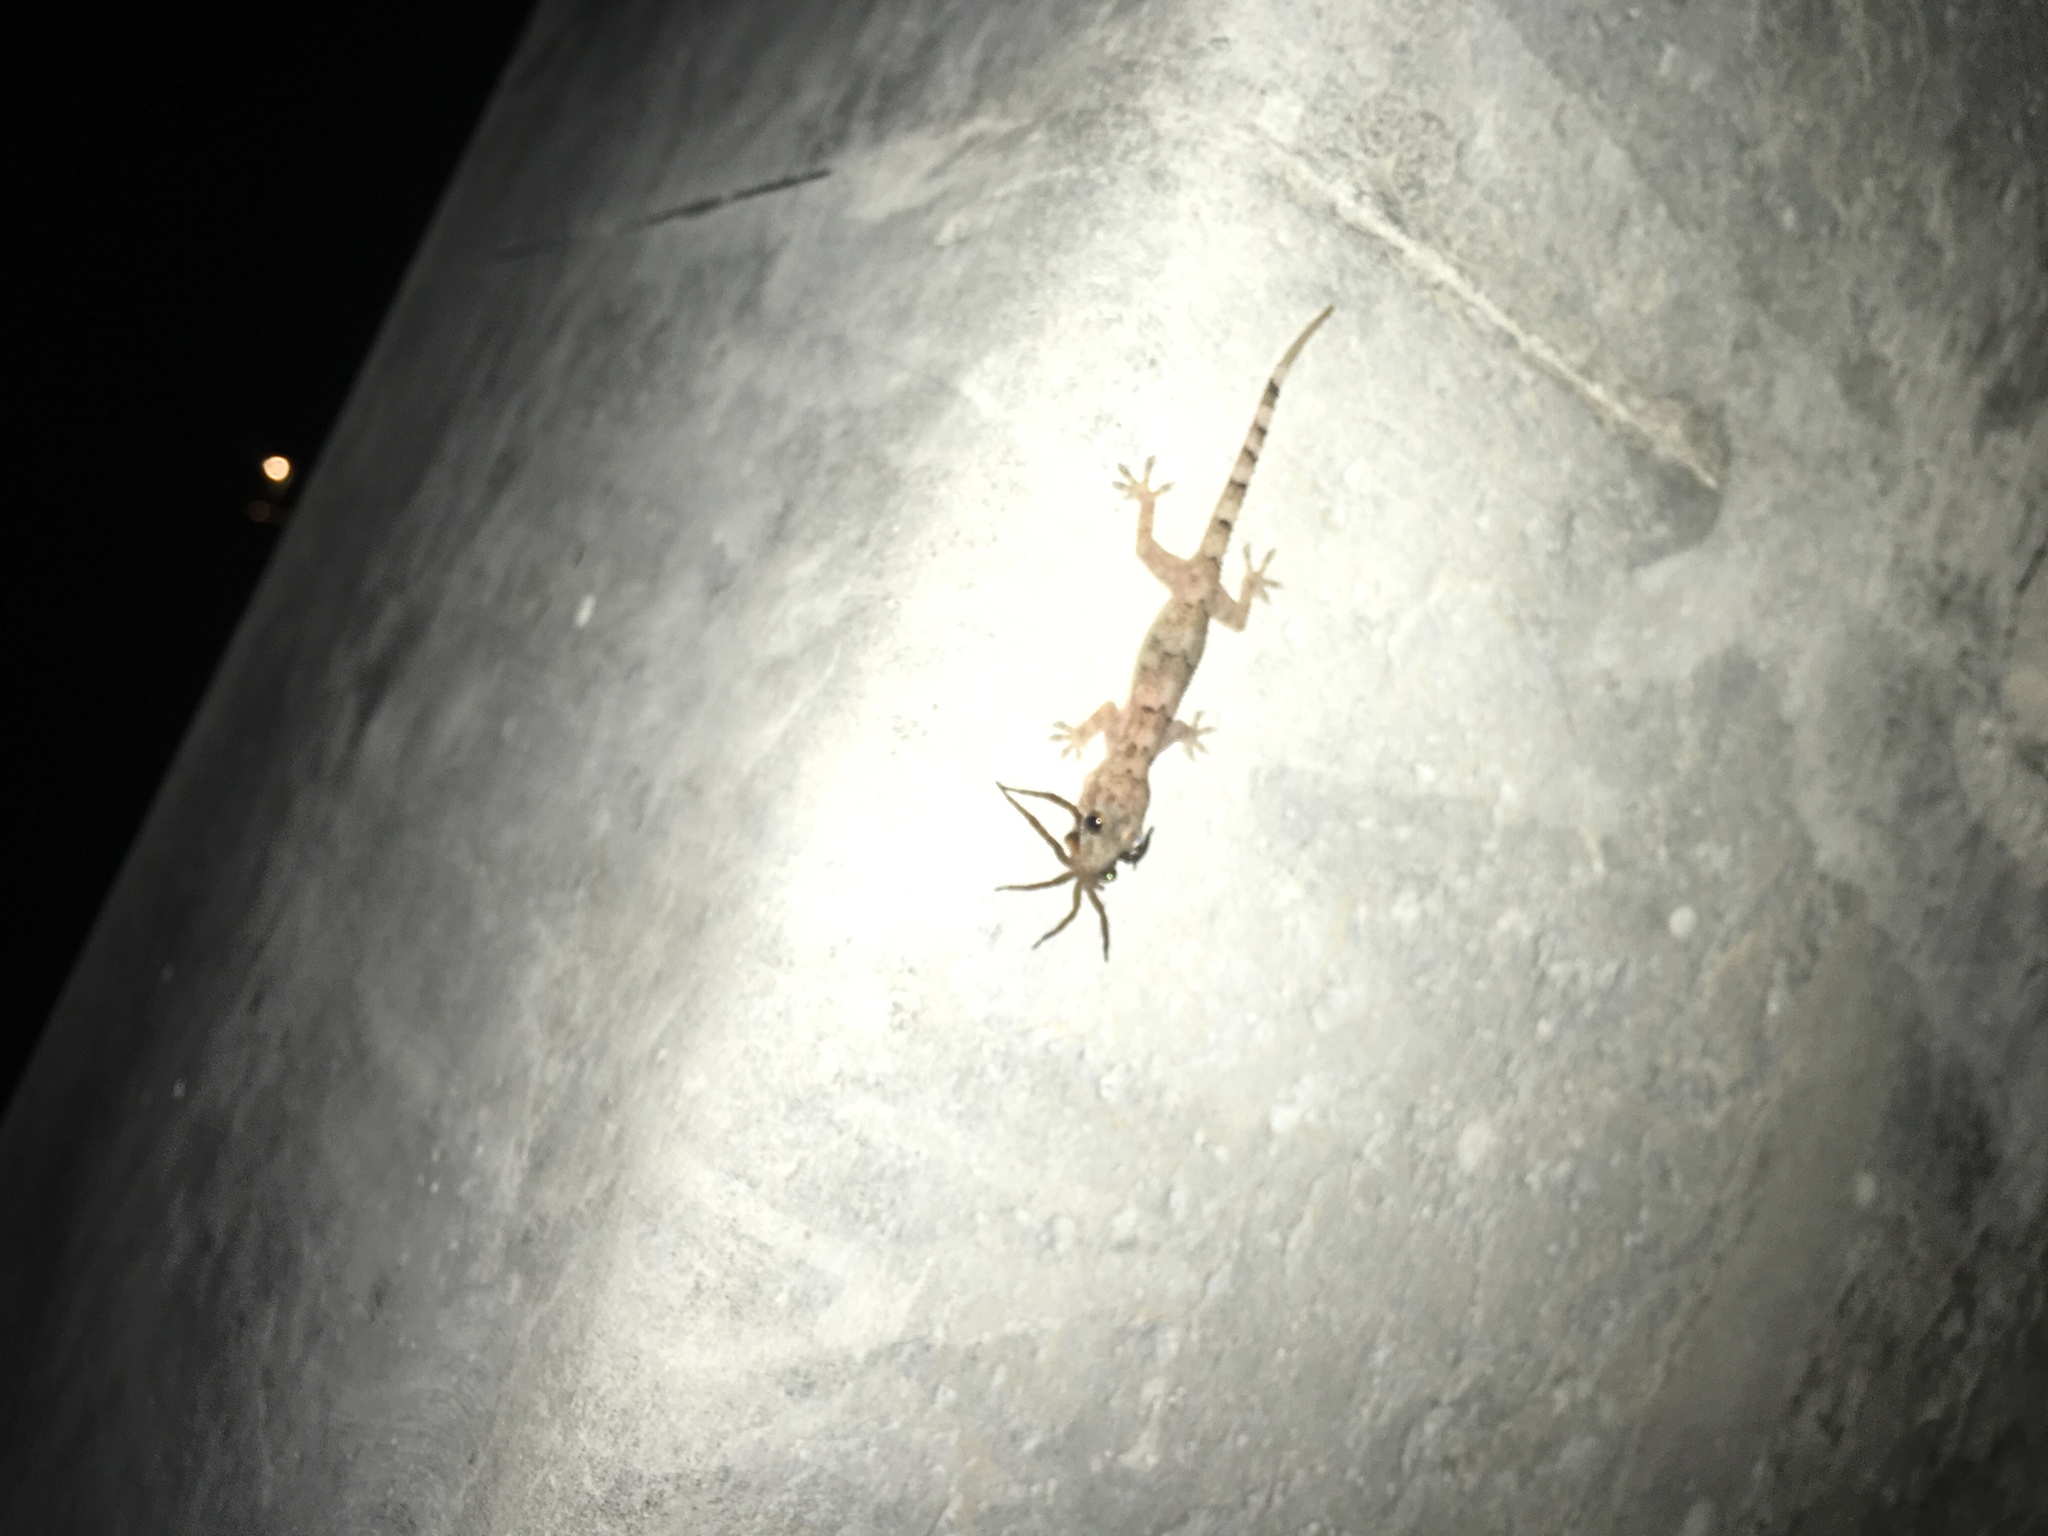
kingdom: Animalia
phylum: Chordata
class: Squamata
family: Gekkonidae
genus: Hemidactylus
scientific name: Hemidactylus mabouia
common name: House gecko
